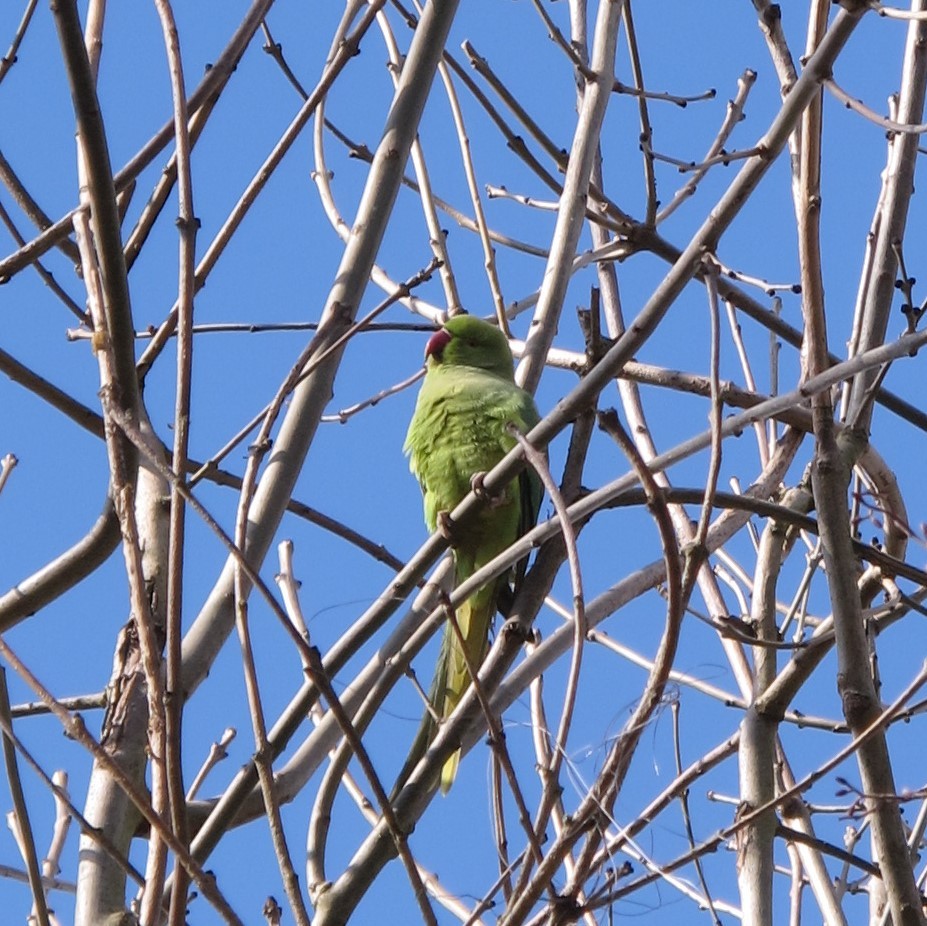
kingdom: Animalia
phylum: Chordata
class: Aves
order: Psittaciformes
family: Psittacidae
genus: Psittacula
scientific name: Psittacula krameri
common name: Rose-ringed parakeet
